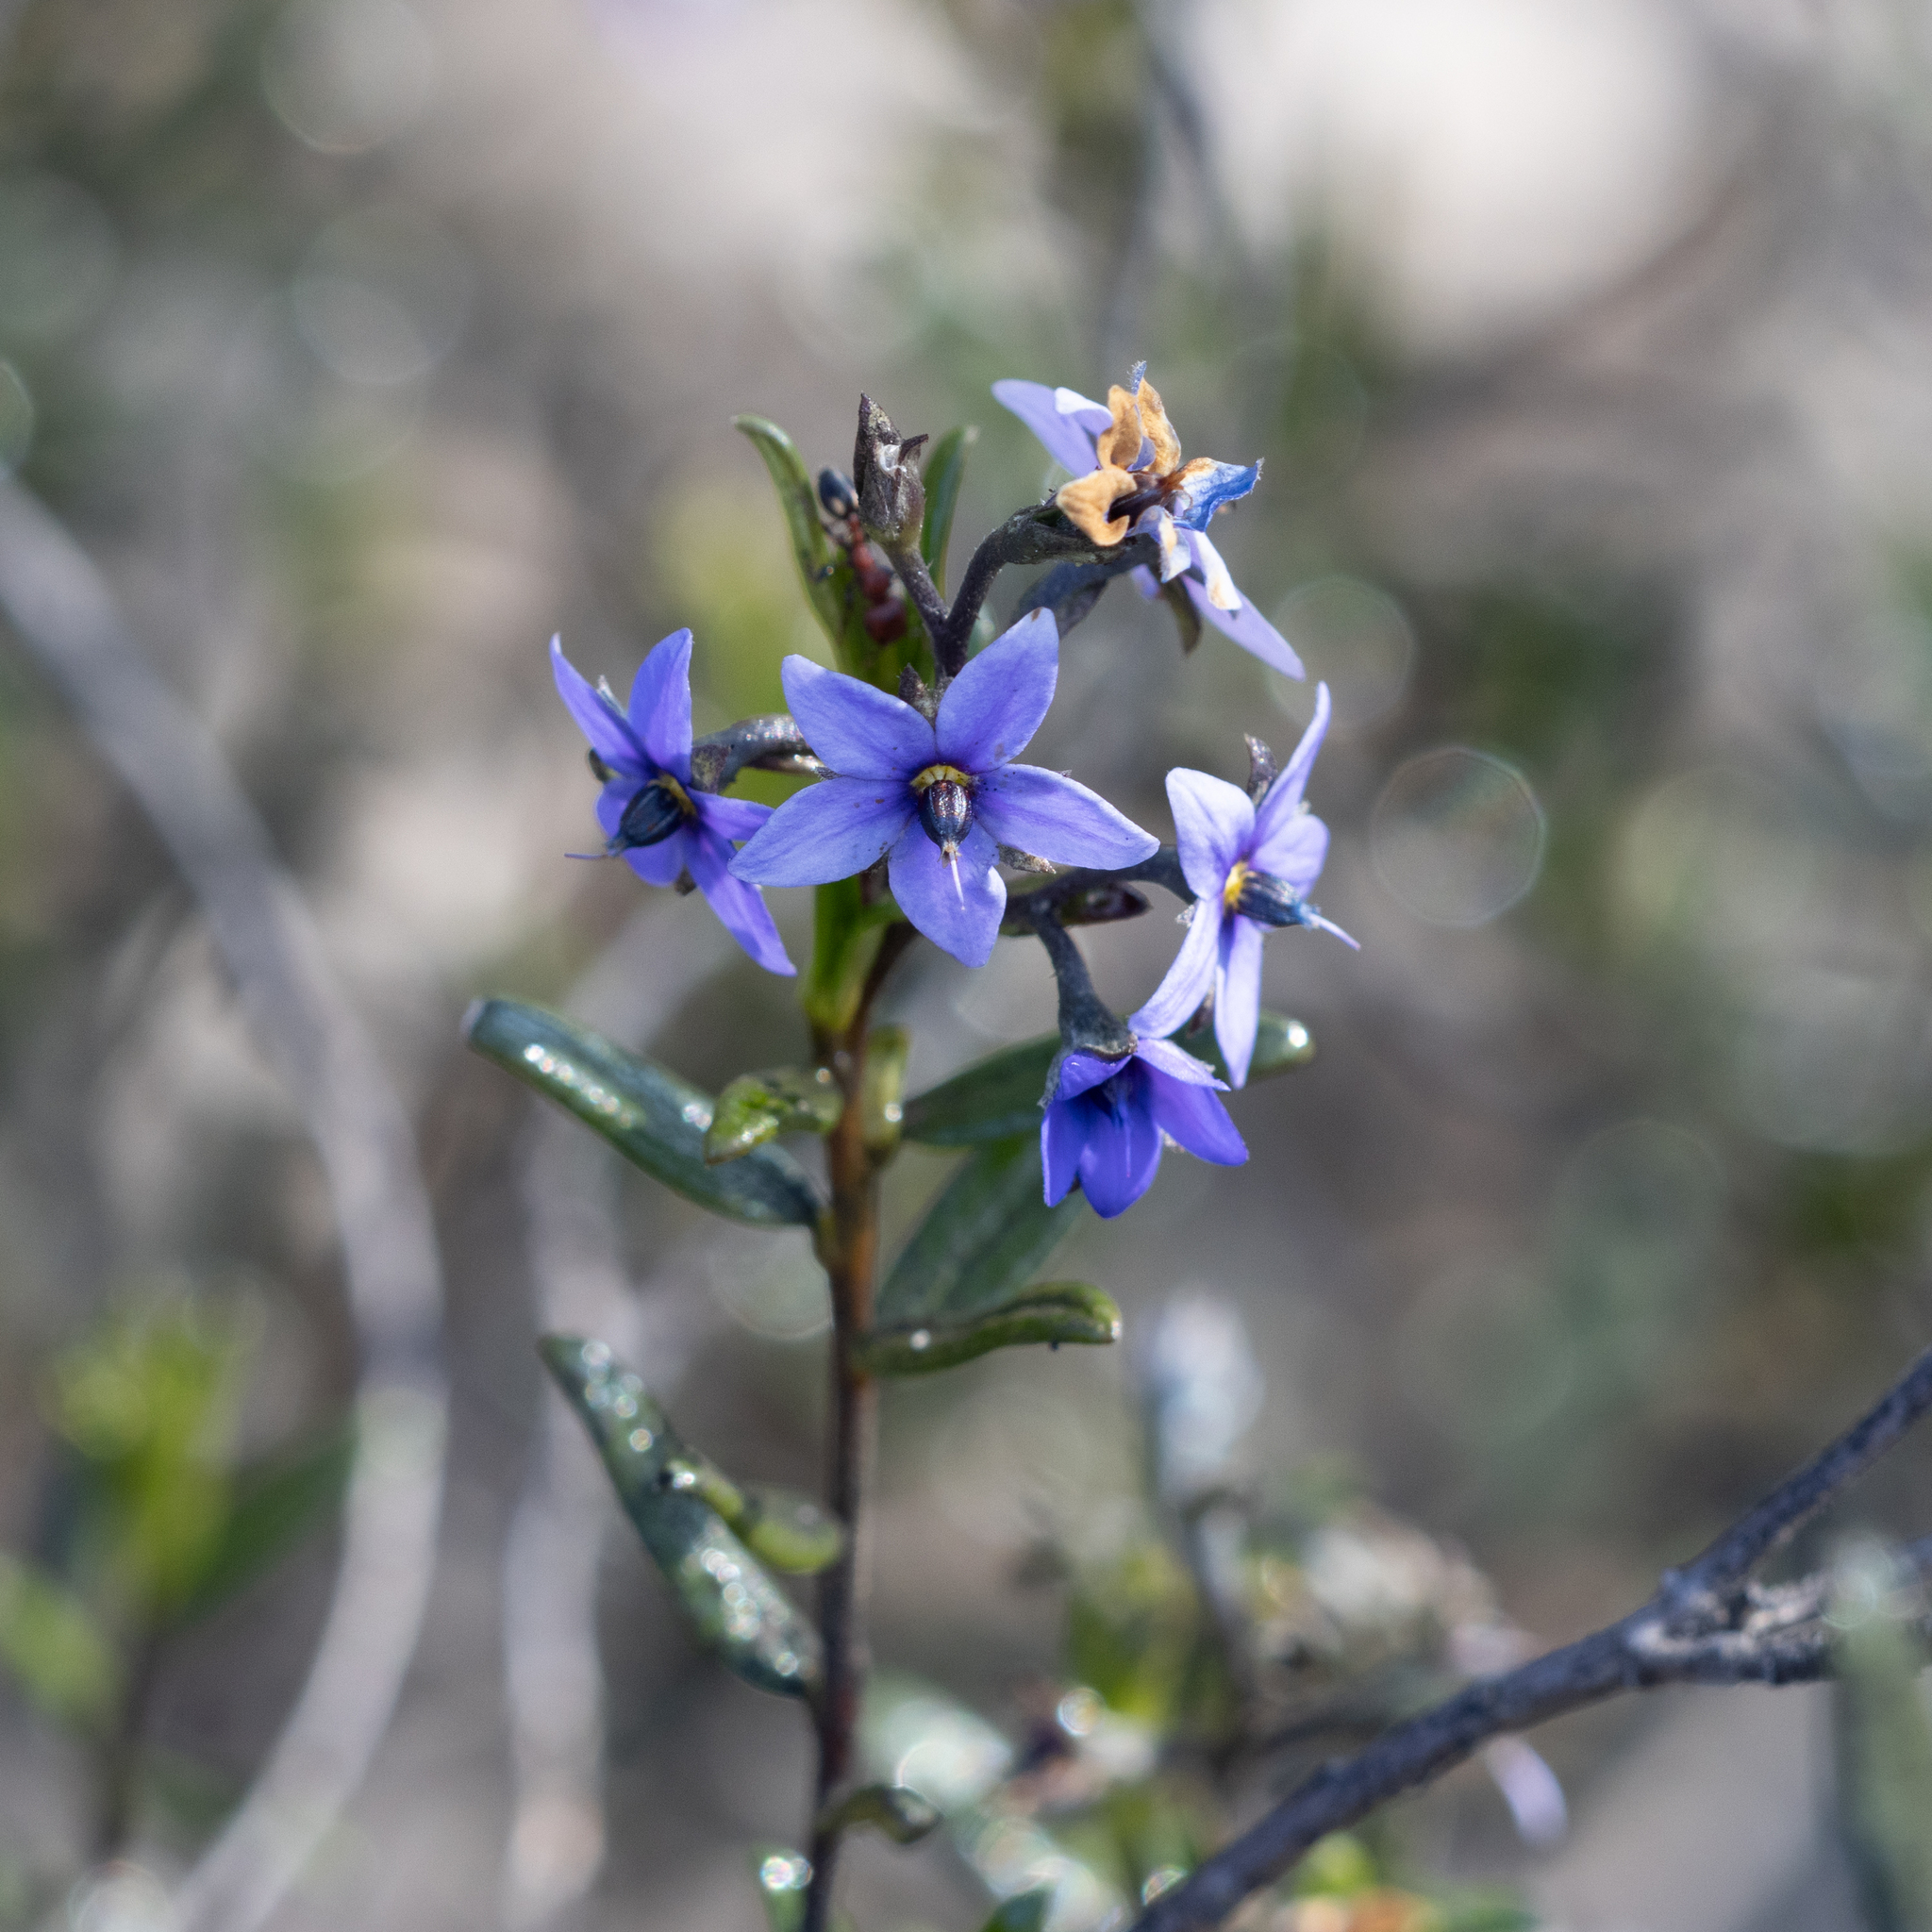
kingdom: Plantae
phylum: Tracheophyta
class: Magnoliopsida
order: Boraginales
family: Ehretiaceae
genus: Halgania
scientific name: Halgania andromedifolia
